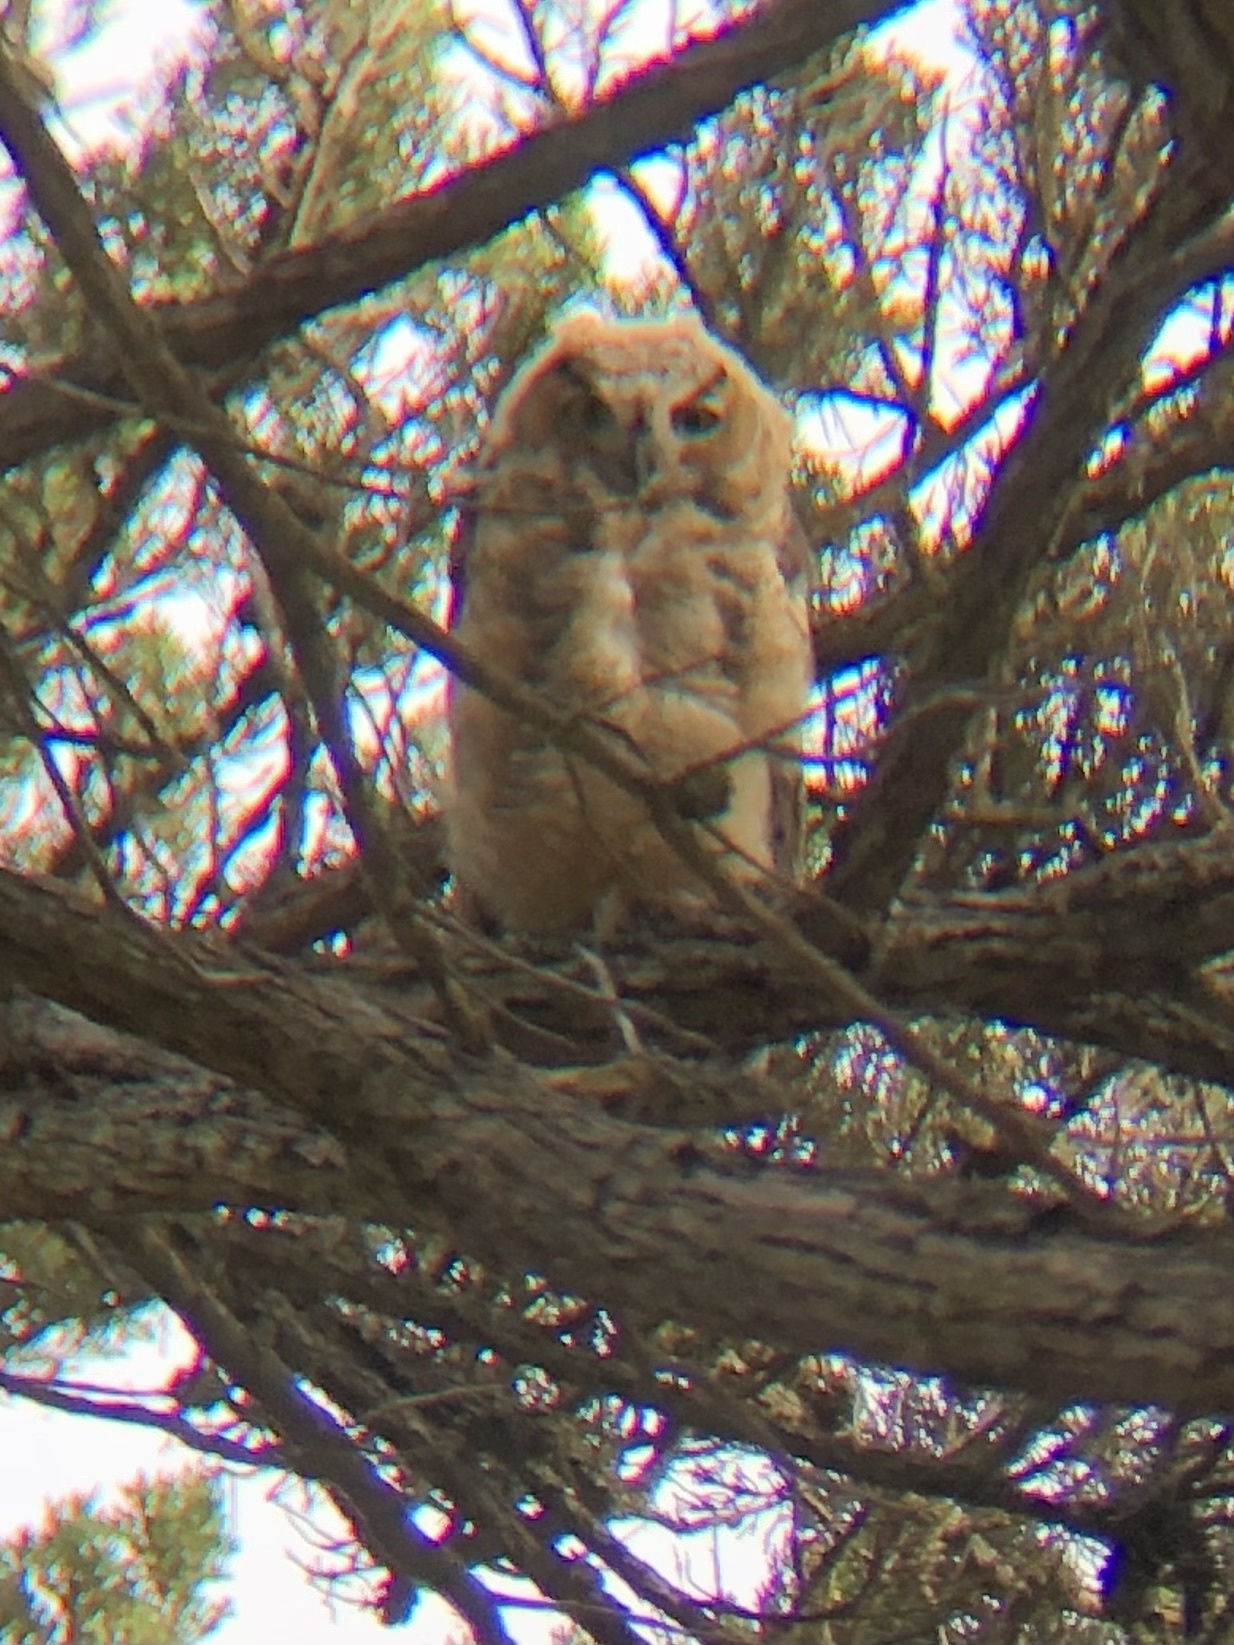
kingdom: Animalia
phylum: Chordata
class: Aves
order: Strigiformes
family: Strigidae
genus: Bubo
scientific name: Bubo virginianus
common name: Great horned owl
